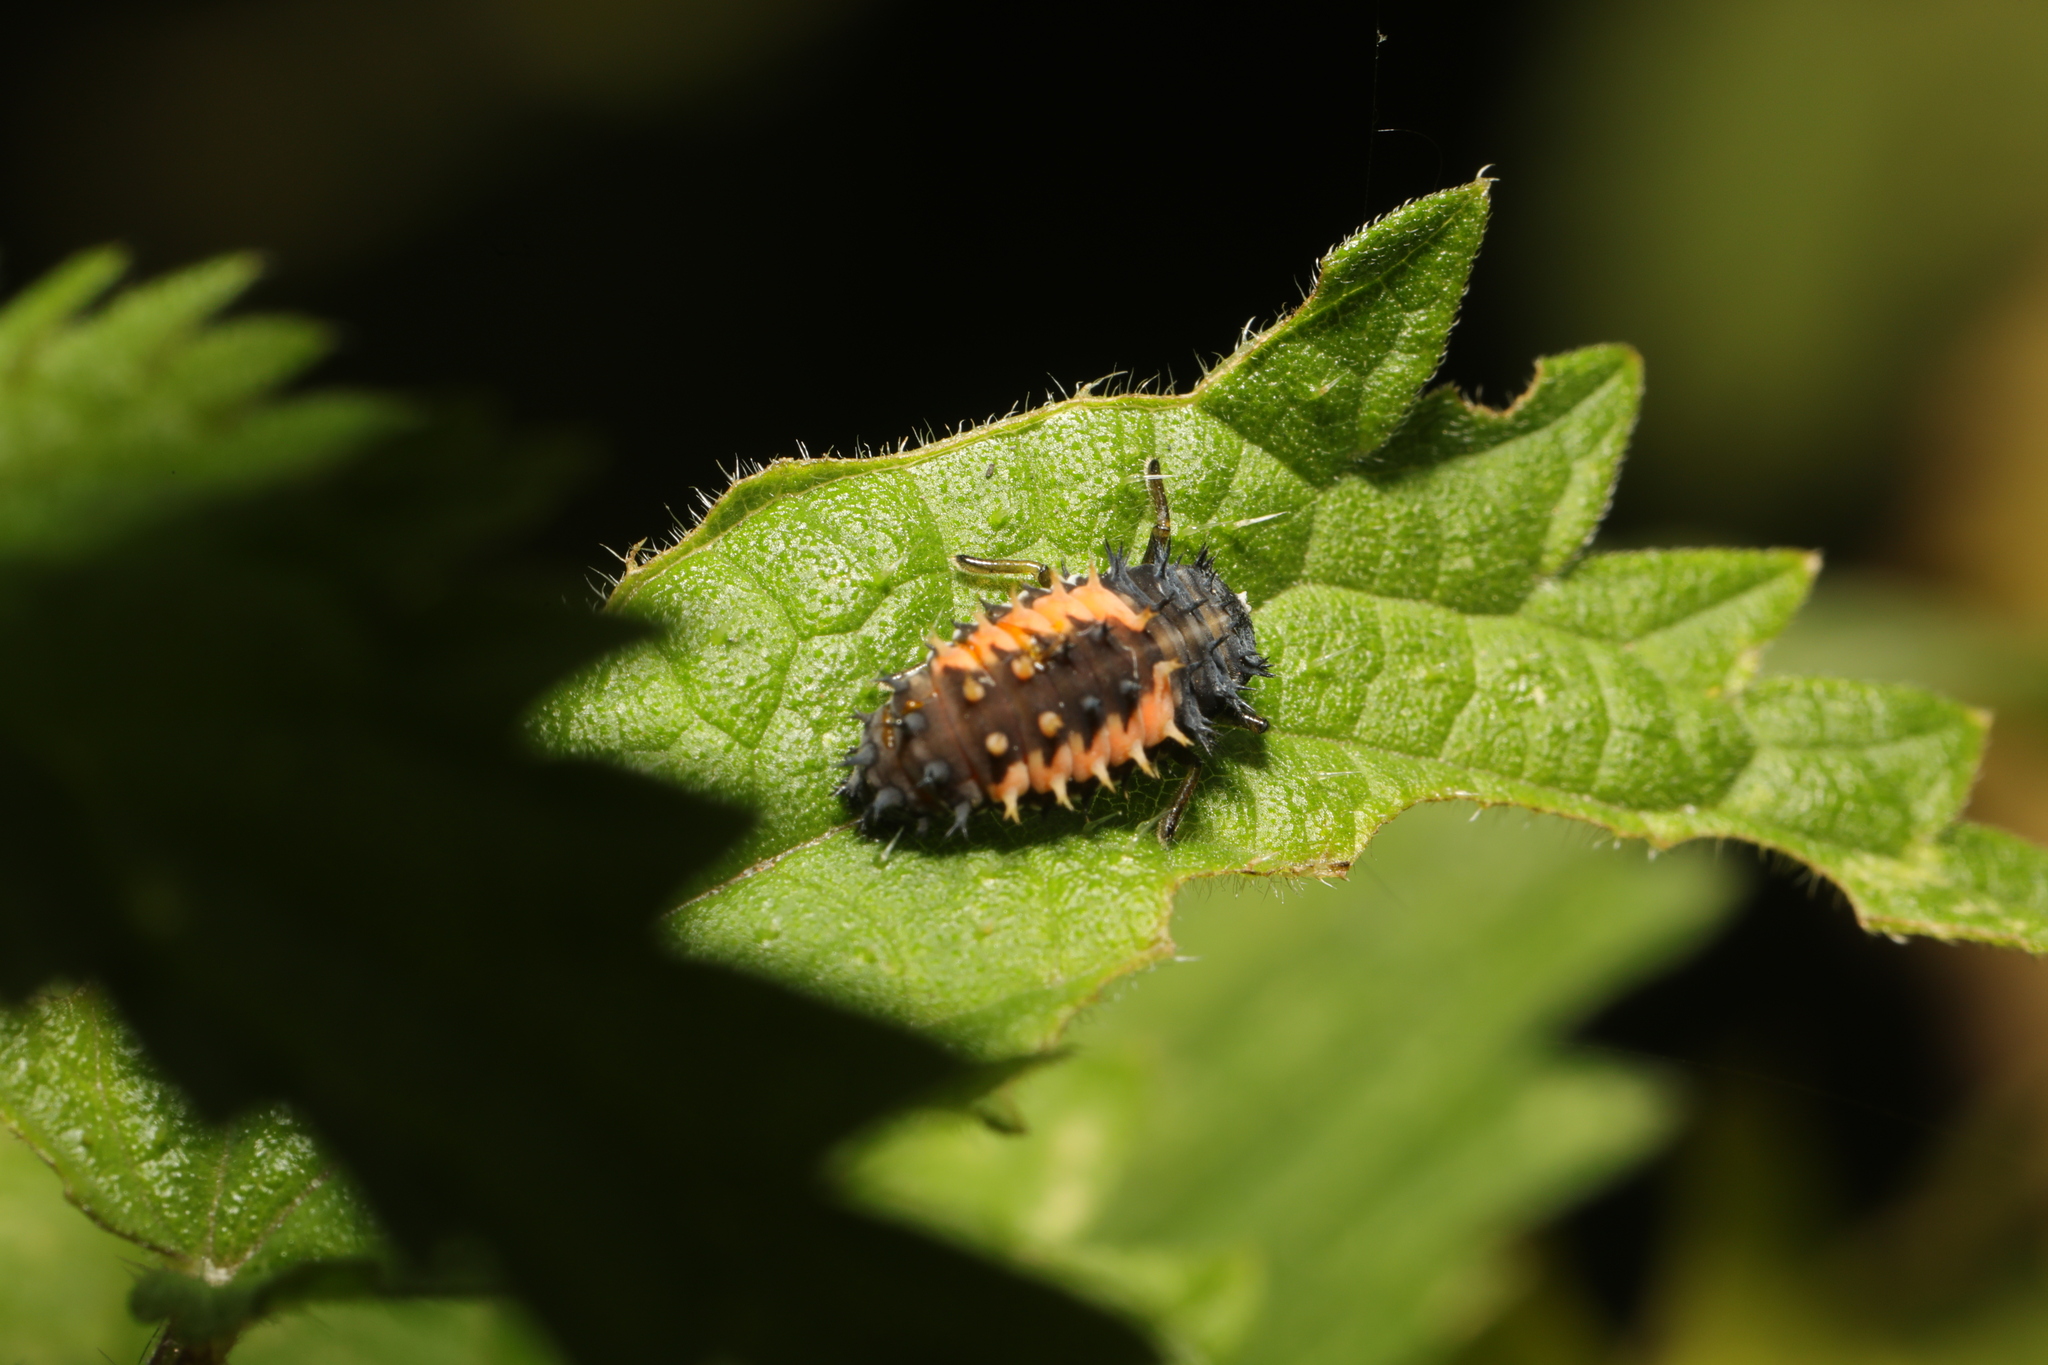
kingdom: Animalia
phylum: Arthropoda
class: Insecta
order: Coleoptera
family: Coccinellidae
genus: Harmonia
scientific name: Harmonia axyridis
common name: Harlequin ladybird
